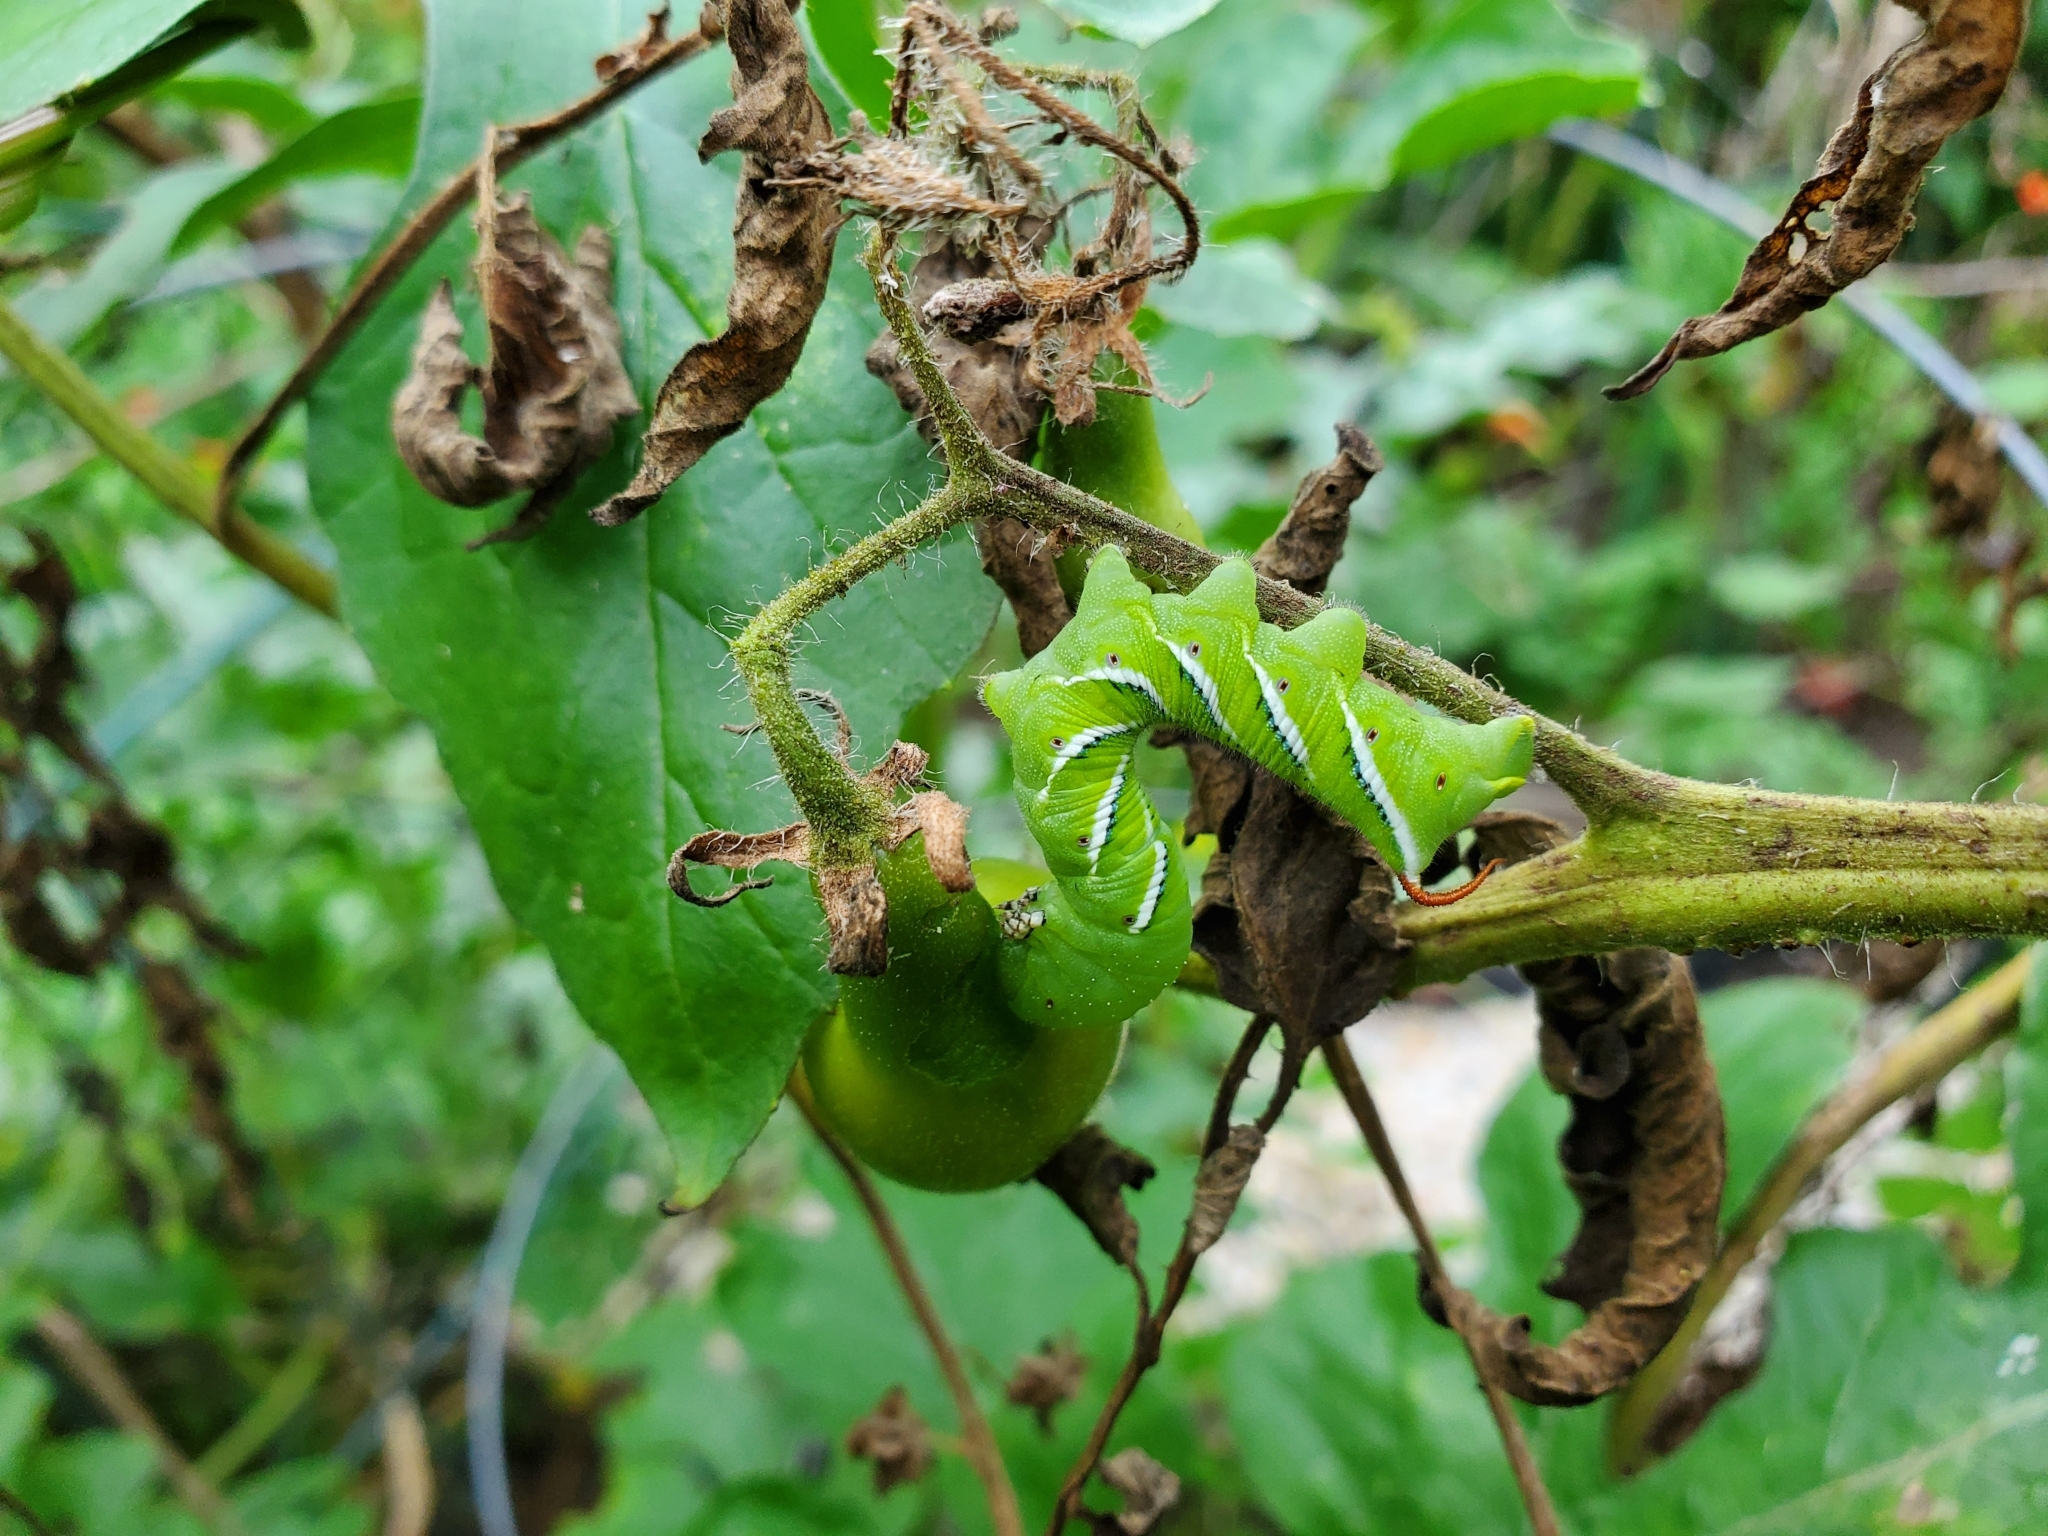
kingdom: Animalia
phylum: Arthropoda
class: Insecta
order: Lepidoptera
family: Sphingidae
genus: Manduca
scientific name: Manduca sexta
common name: Carolina sphinx
